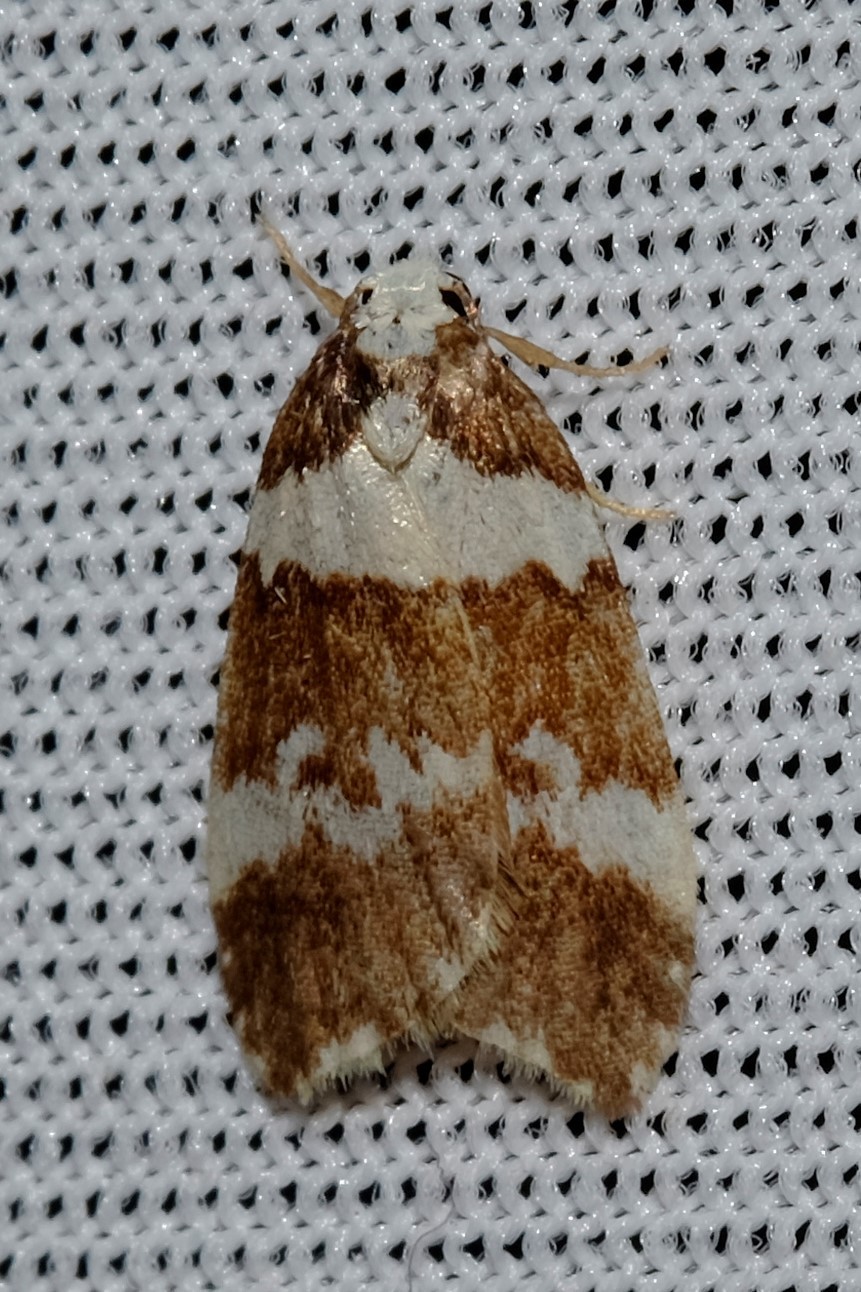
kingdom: Animalia
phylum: Arthropoda
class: Insecta
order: Lepidoptera
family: Erebidae
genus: Halone
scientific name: Halone sejuncta
